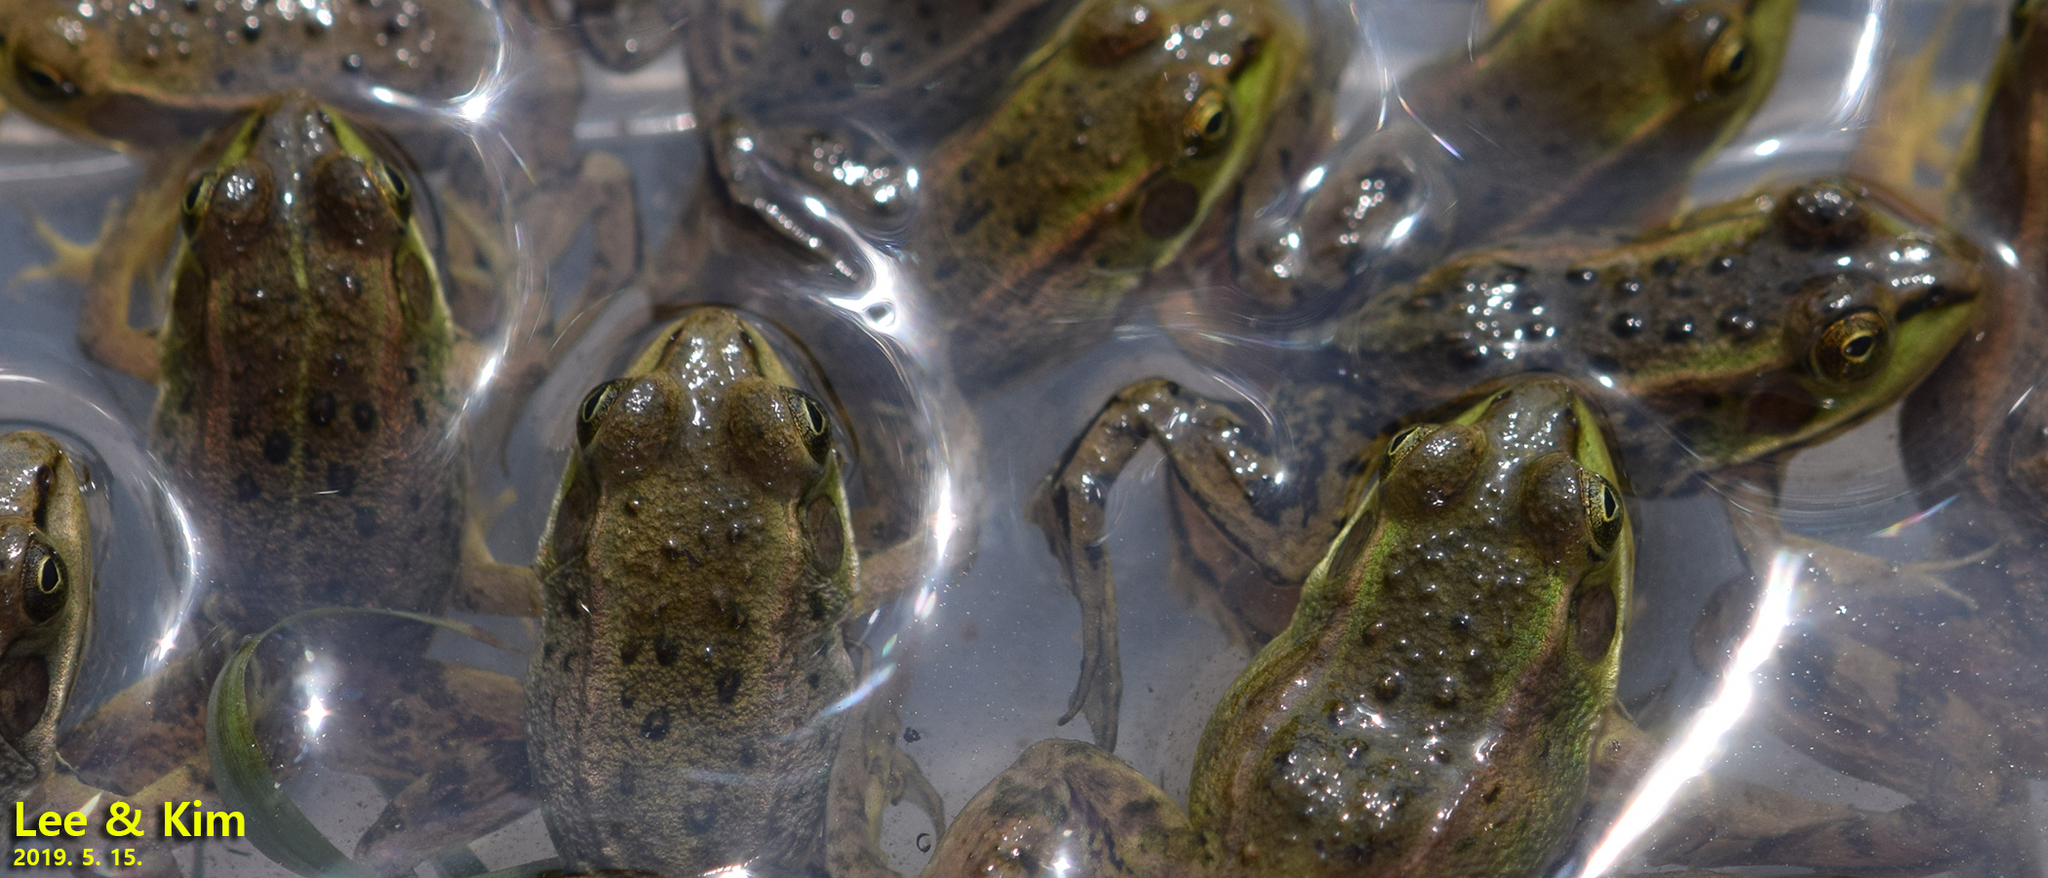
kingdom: Animalia
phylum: Chordata
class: Amphibia
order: Anura
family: Ranidae
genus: Pelophylax
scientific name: Pelophylax chosenicus
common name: Gold-spotted pond frog
